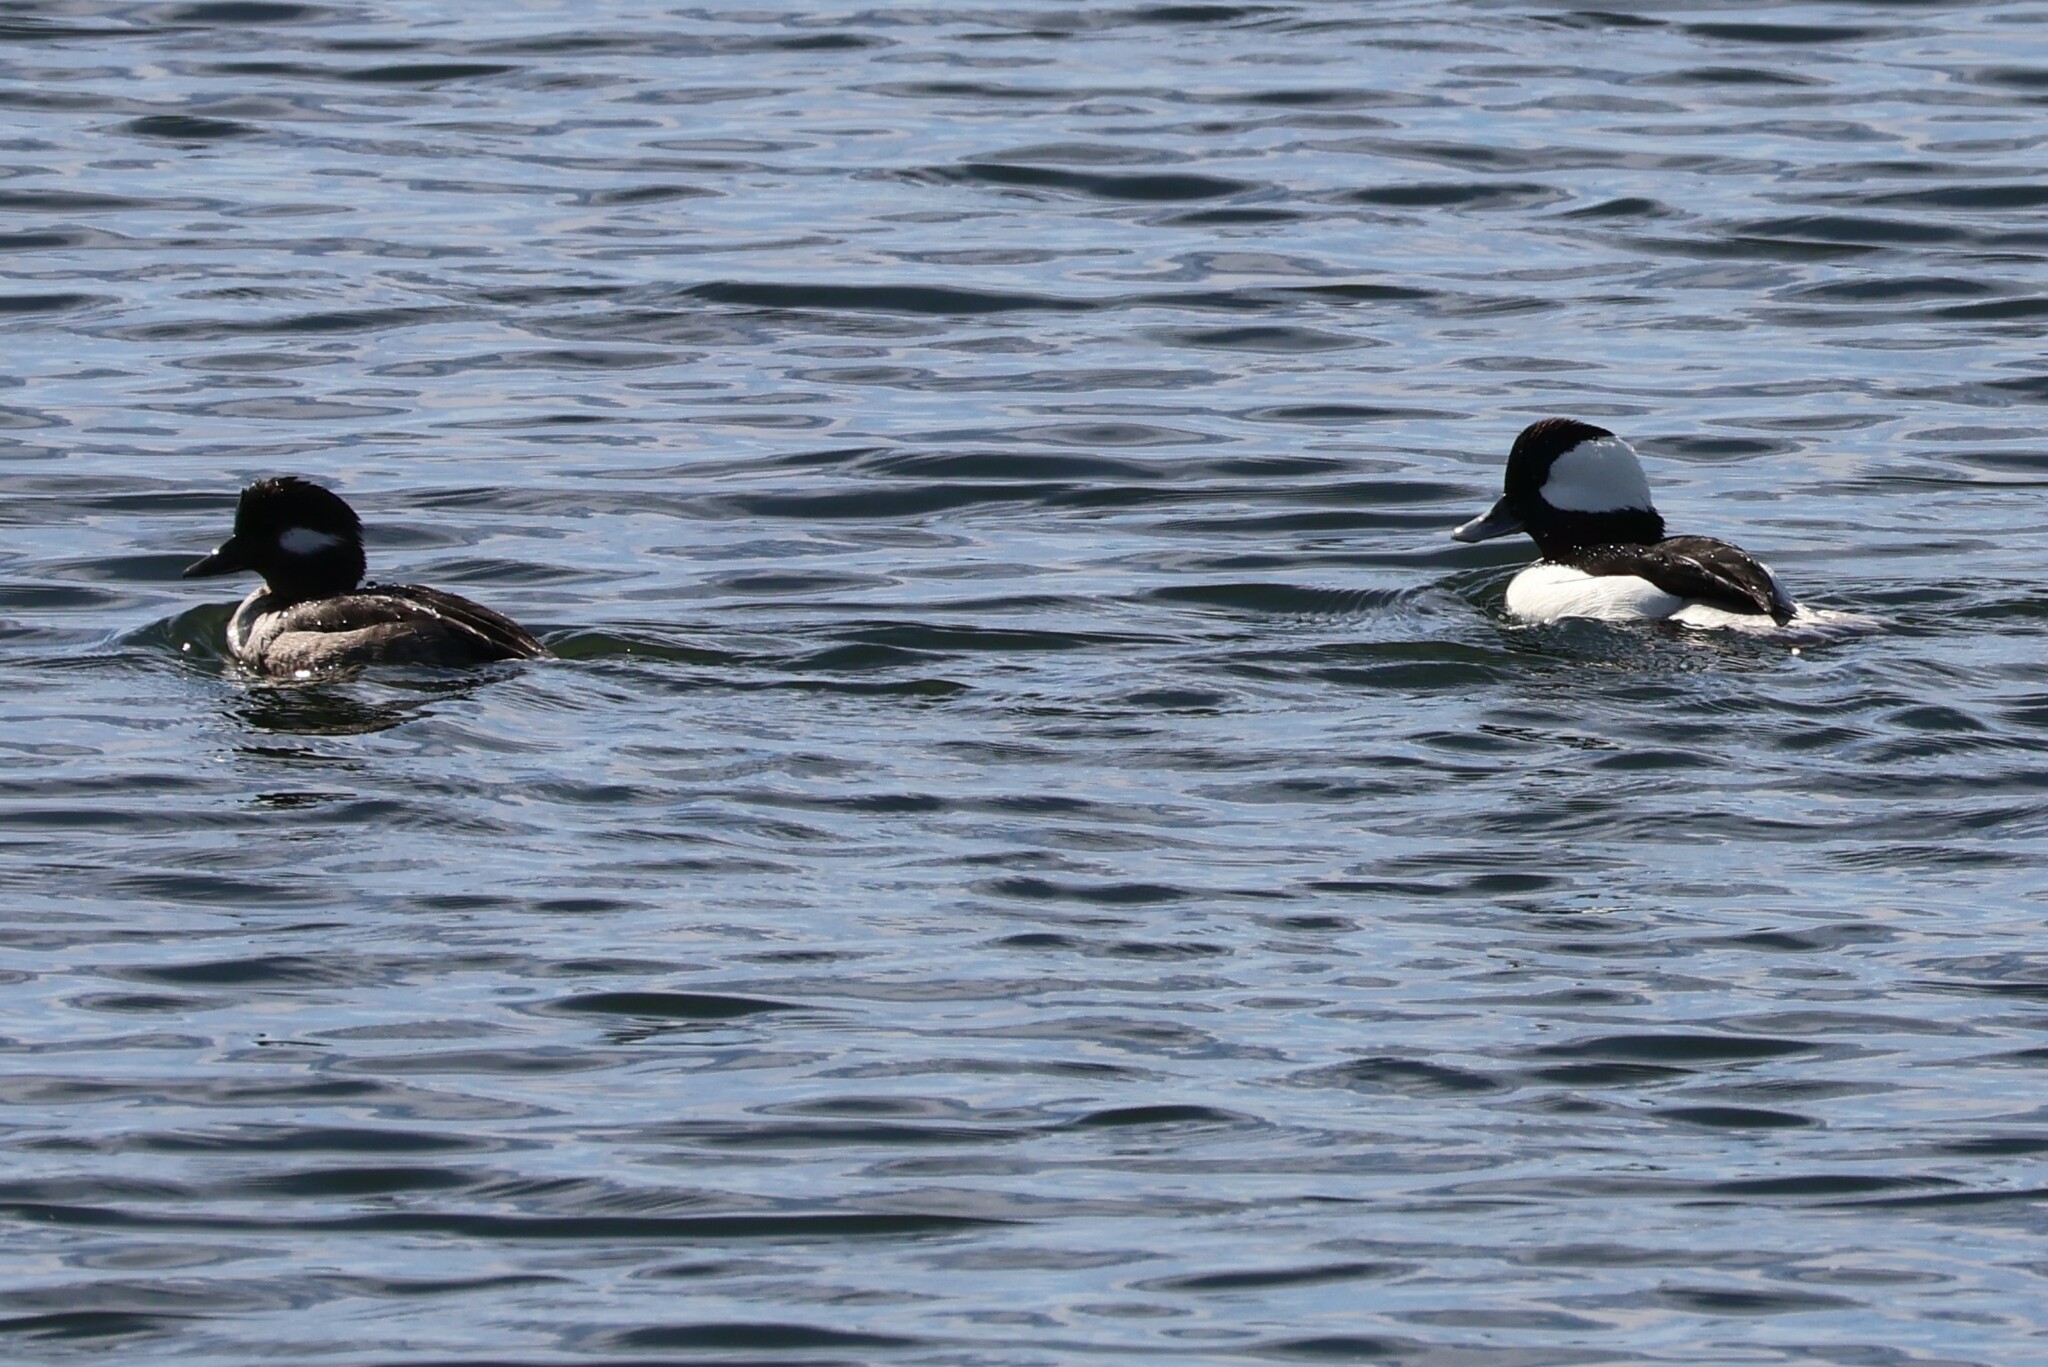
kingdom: Animalia
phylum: Chordata
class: Aves
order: Anseriformes
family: Anatidae
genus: Bucephala
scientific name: Bucephala albeola
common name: Bufflehead
